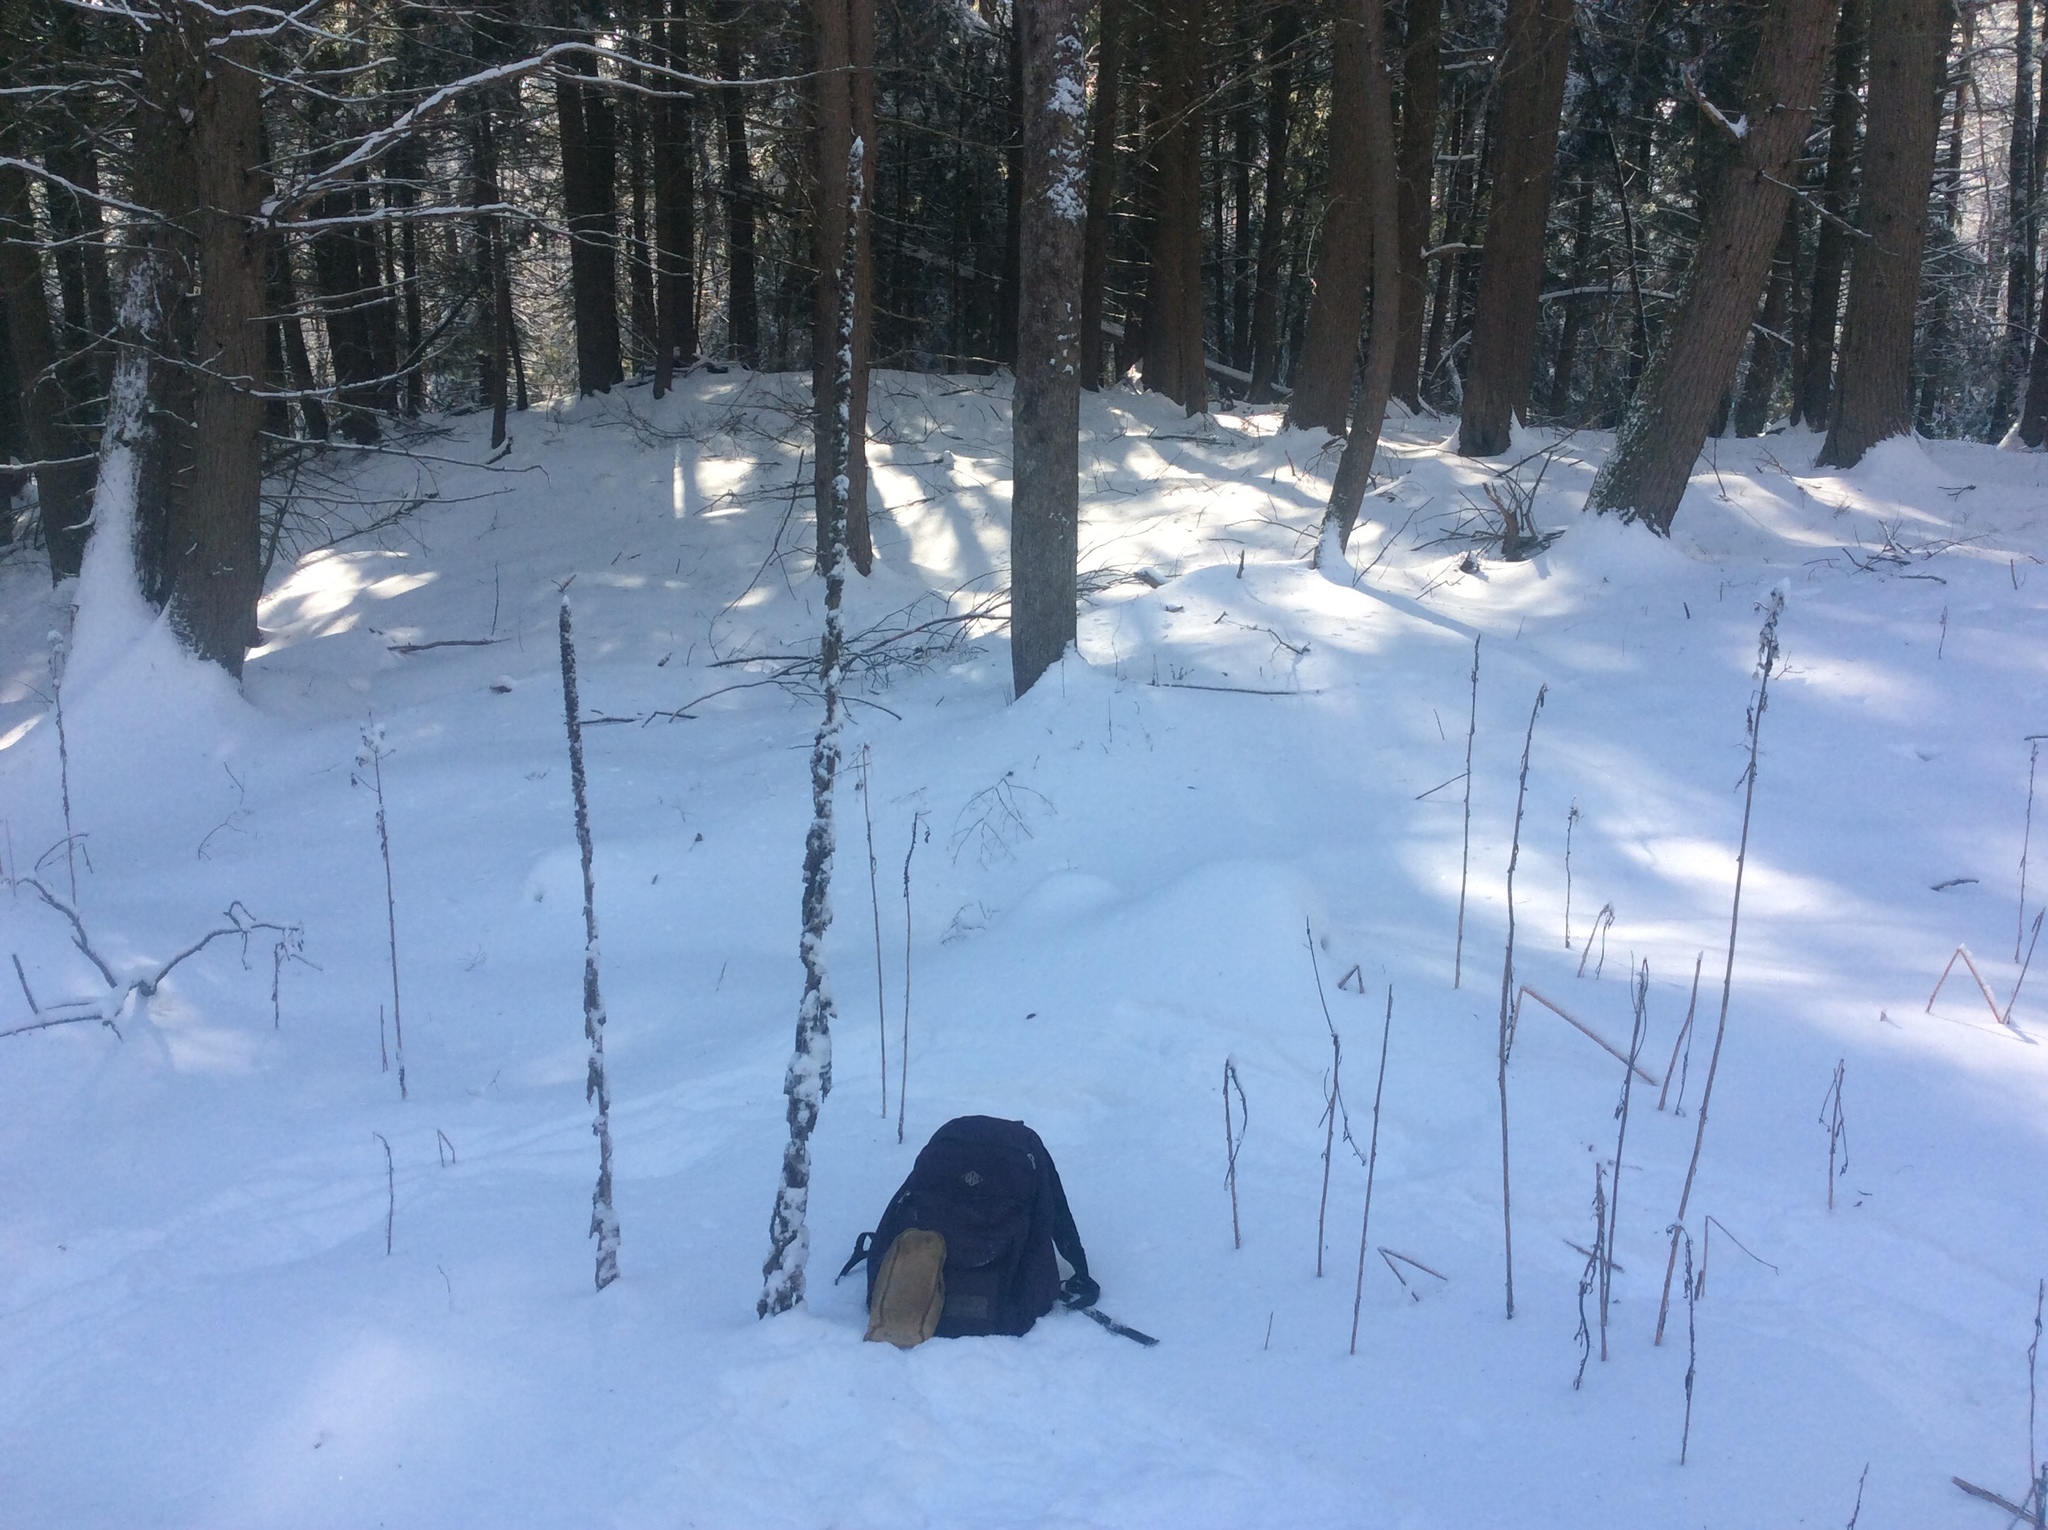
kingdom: Plantae
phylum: Tracheophyta
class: Magnoliopsida
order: Lamiales
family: Scrophulariaceae
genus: Verbascum
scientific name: Verbascum thapsus
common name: Common mullein
